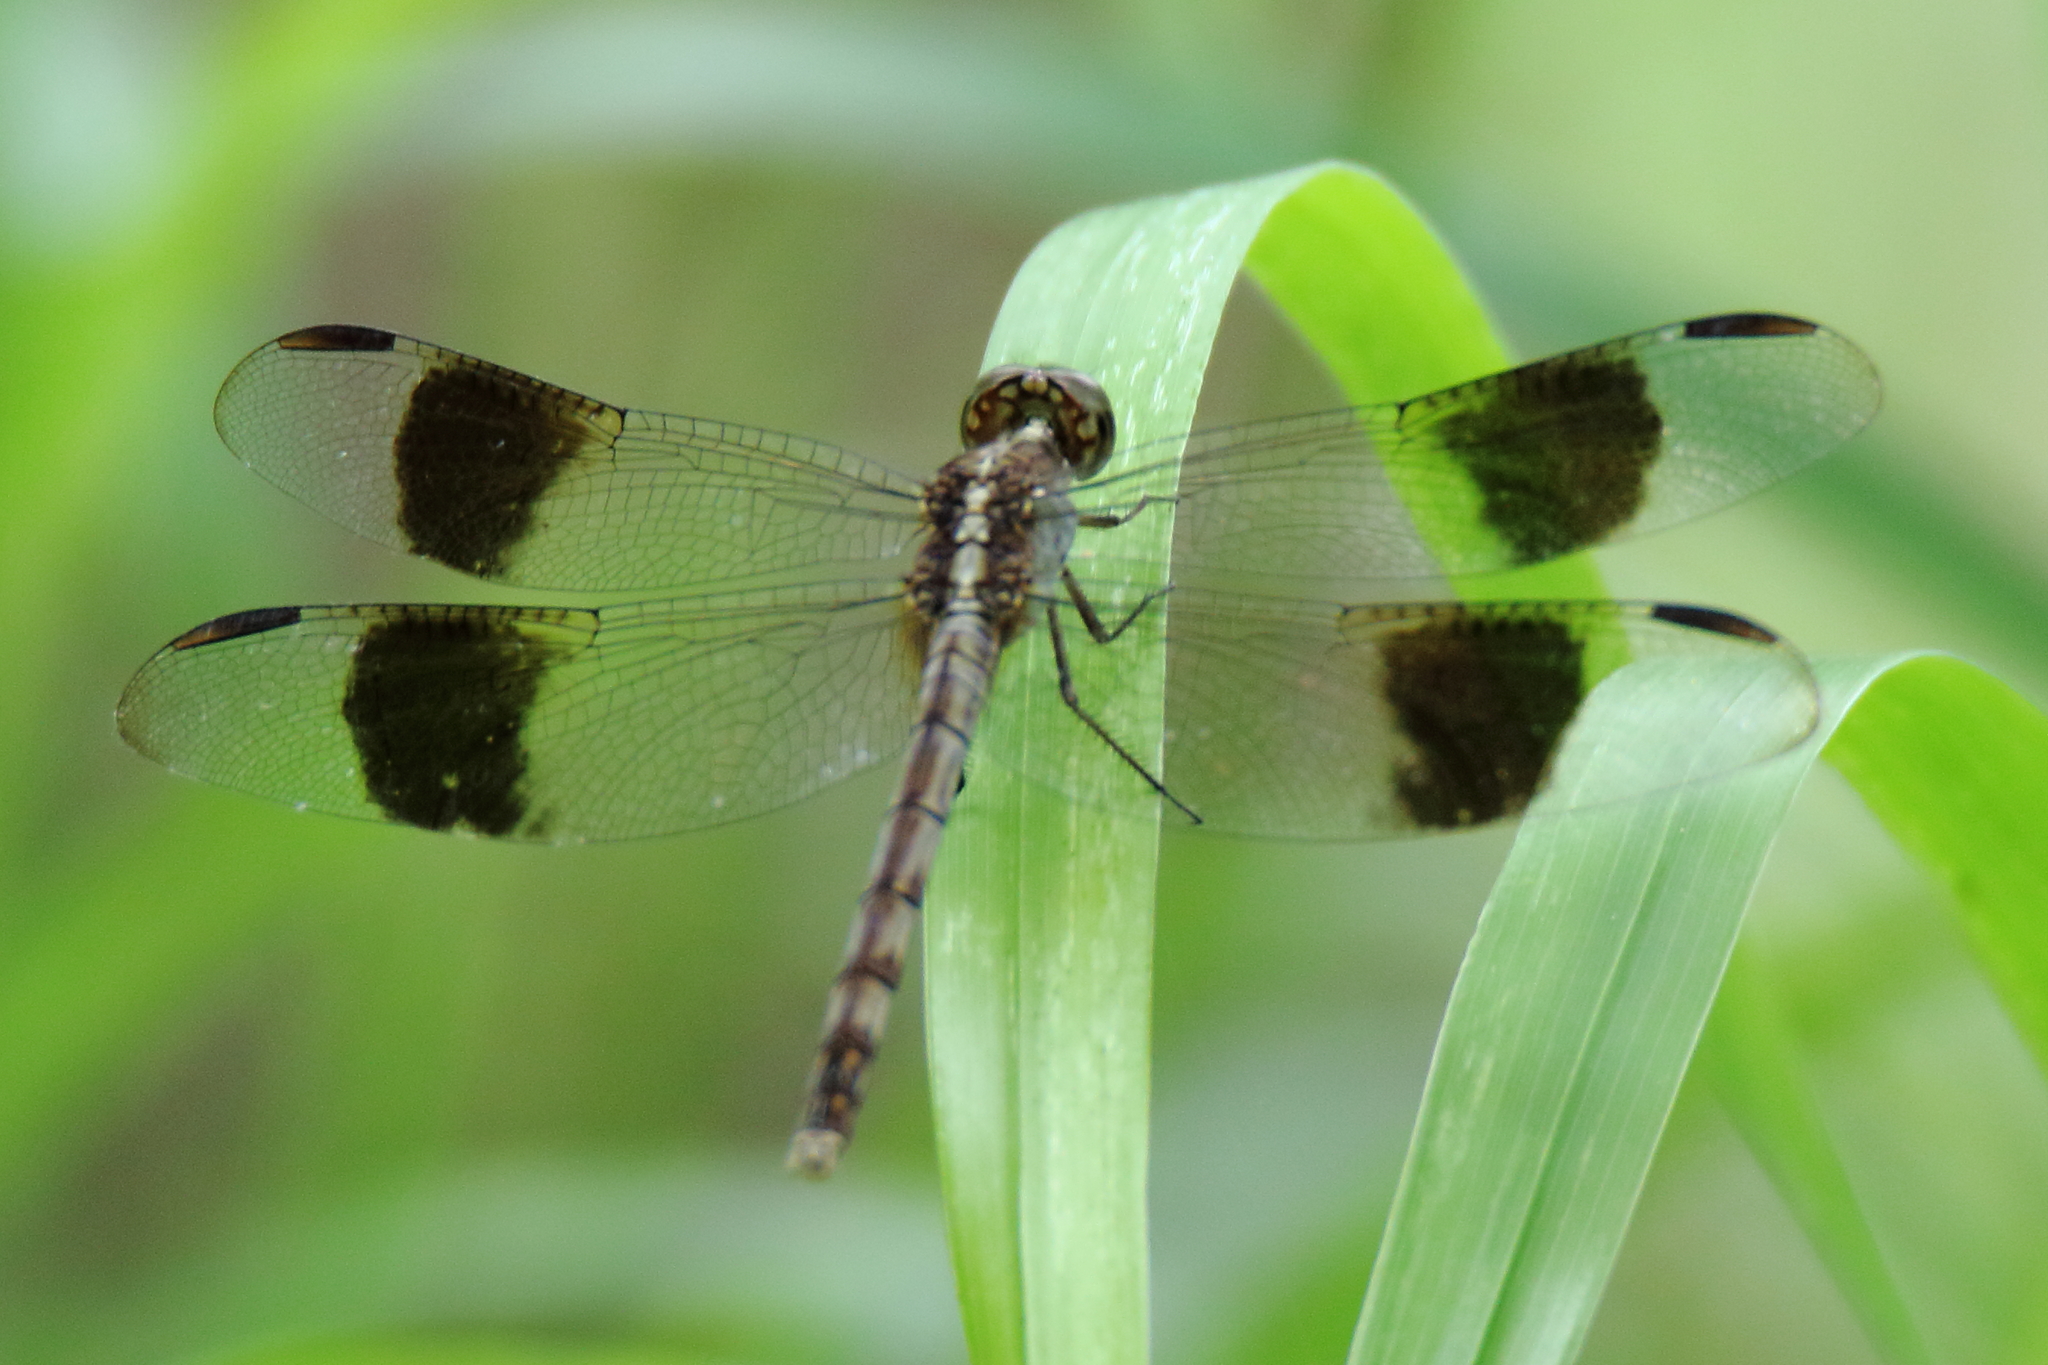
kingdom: Animalia
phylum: Arthropoda
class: Insecta
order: Odonata
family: Libellulidae
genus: Erythrodiplax
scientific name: Erythrodiplax umbrata
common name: Band-winged dragonlet
